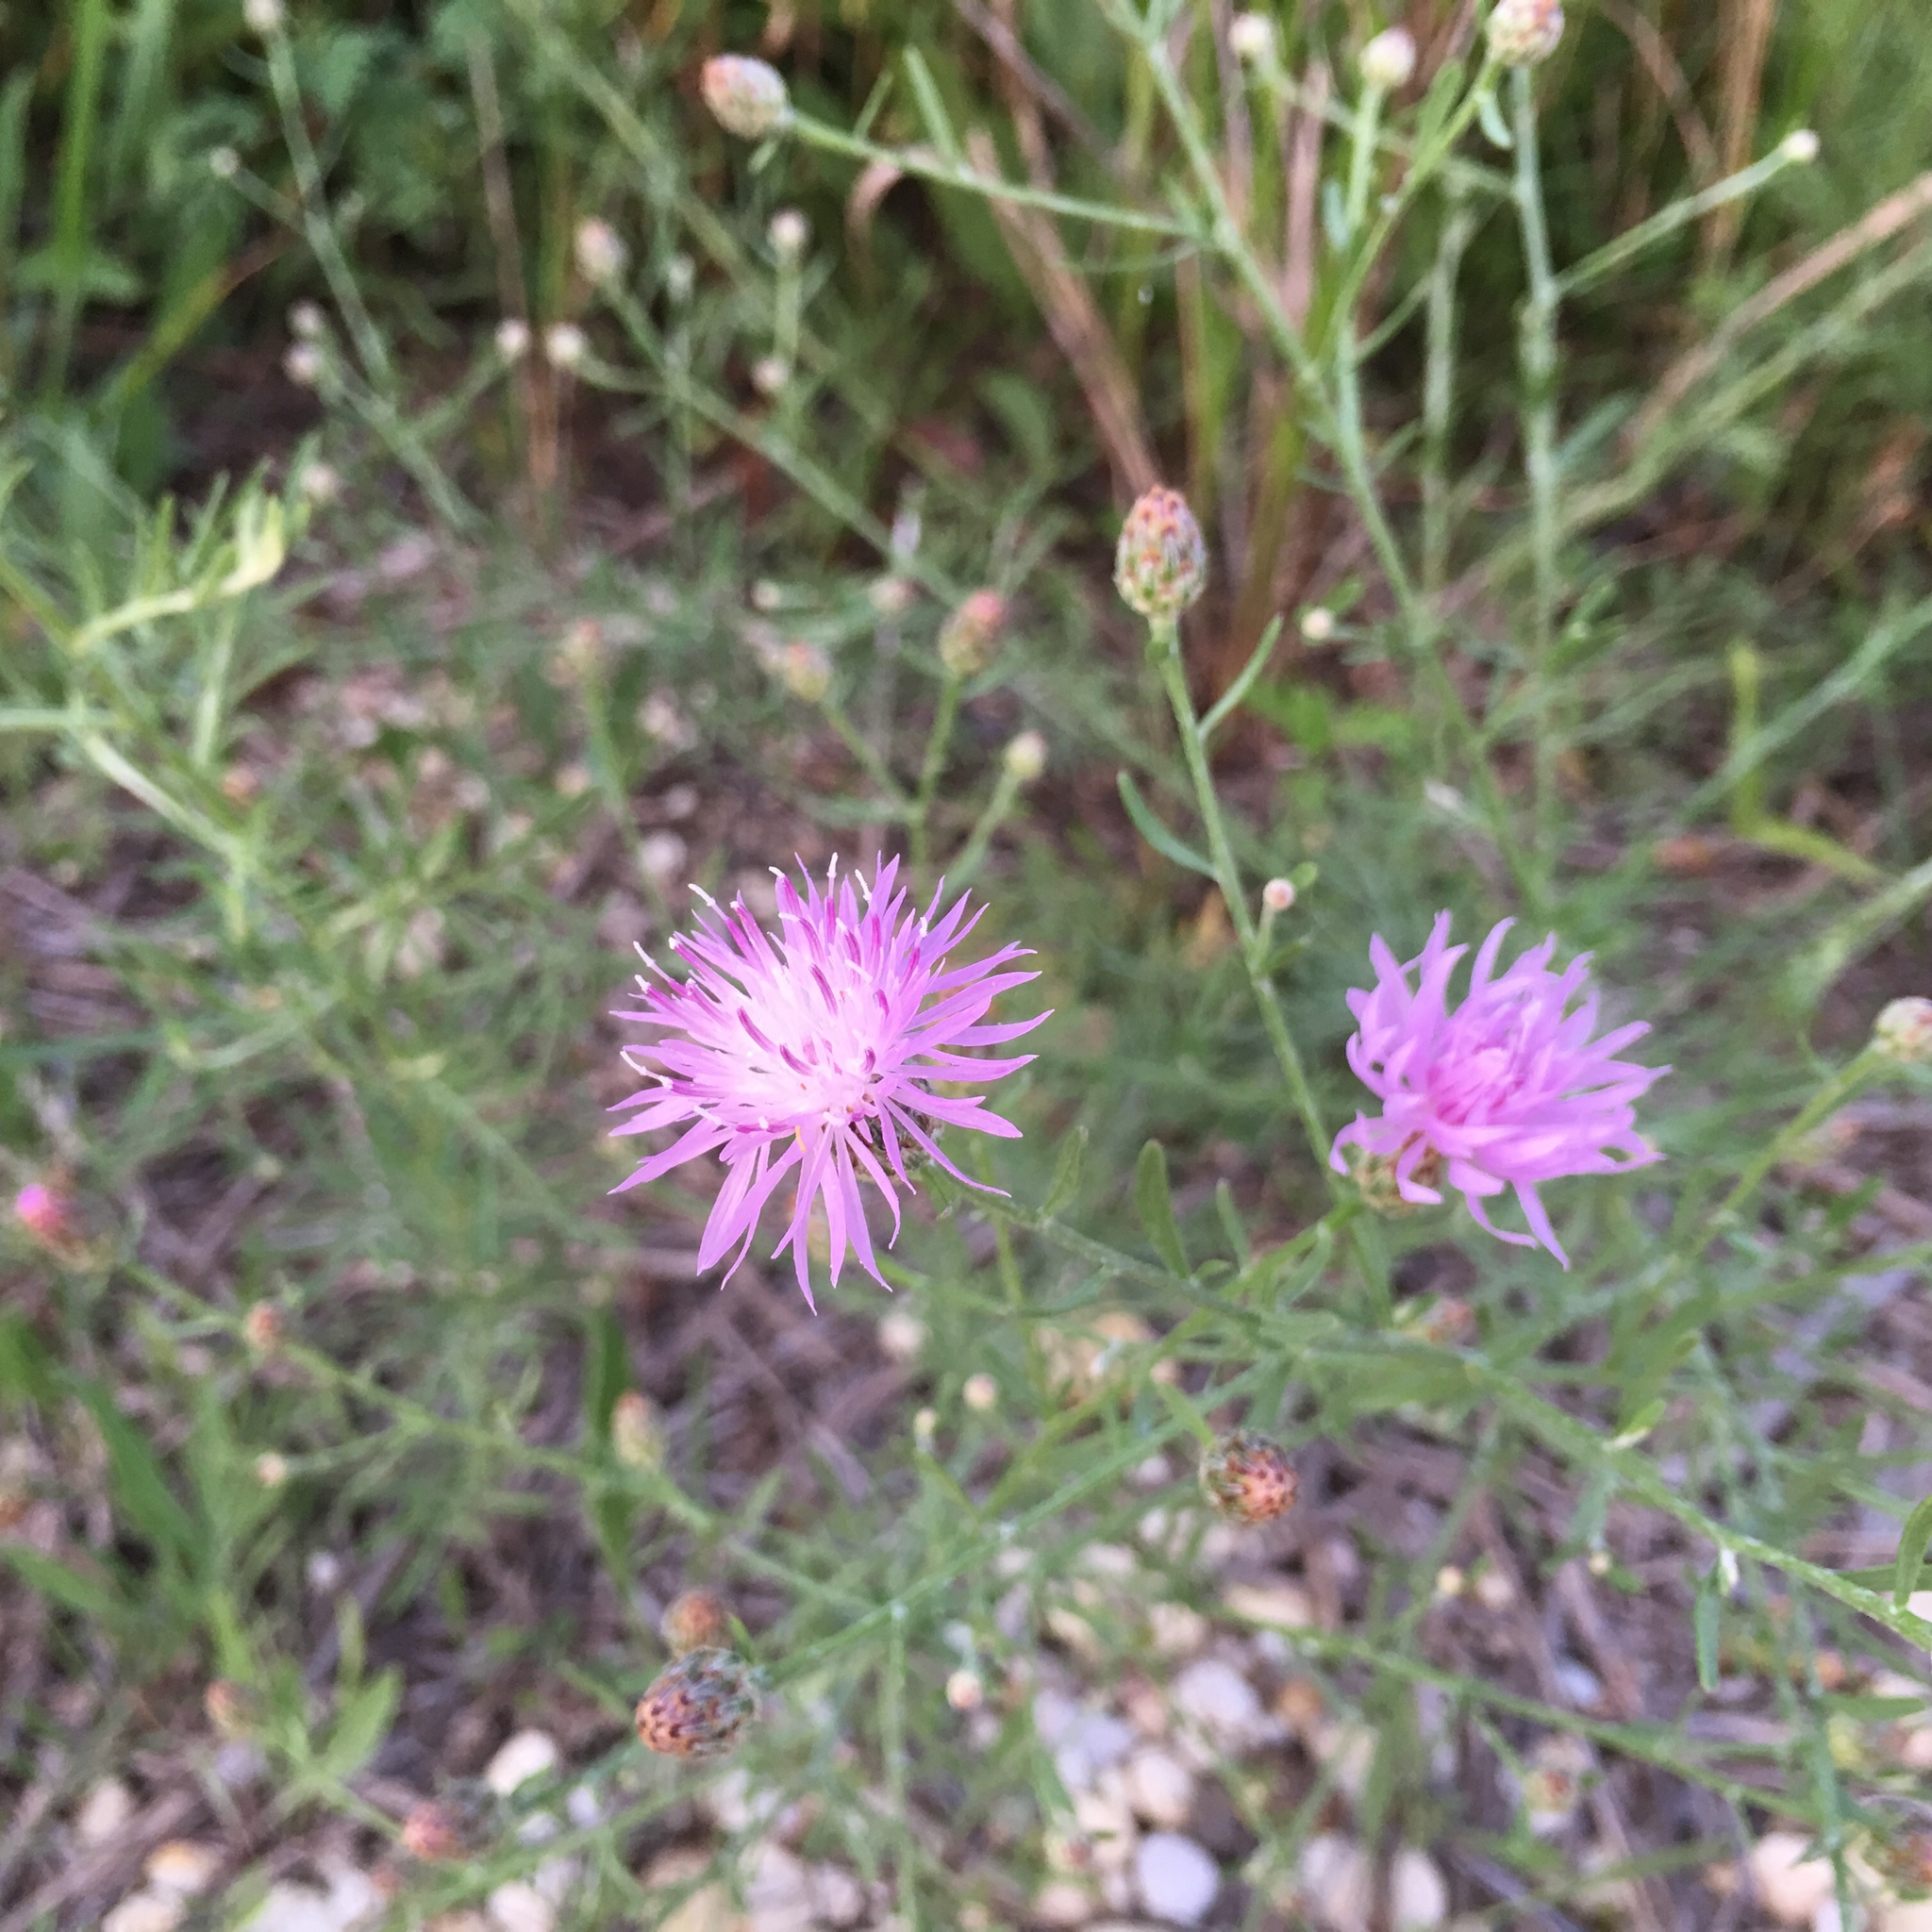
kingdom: Plantae
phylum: Tracheophyta
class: Magnoliopsida
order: Asterales
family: Asteraceae
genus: Centaurea
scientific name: Centaurea stoebe
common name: Spotted knapweed
